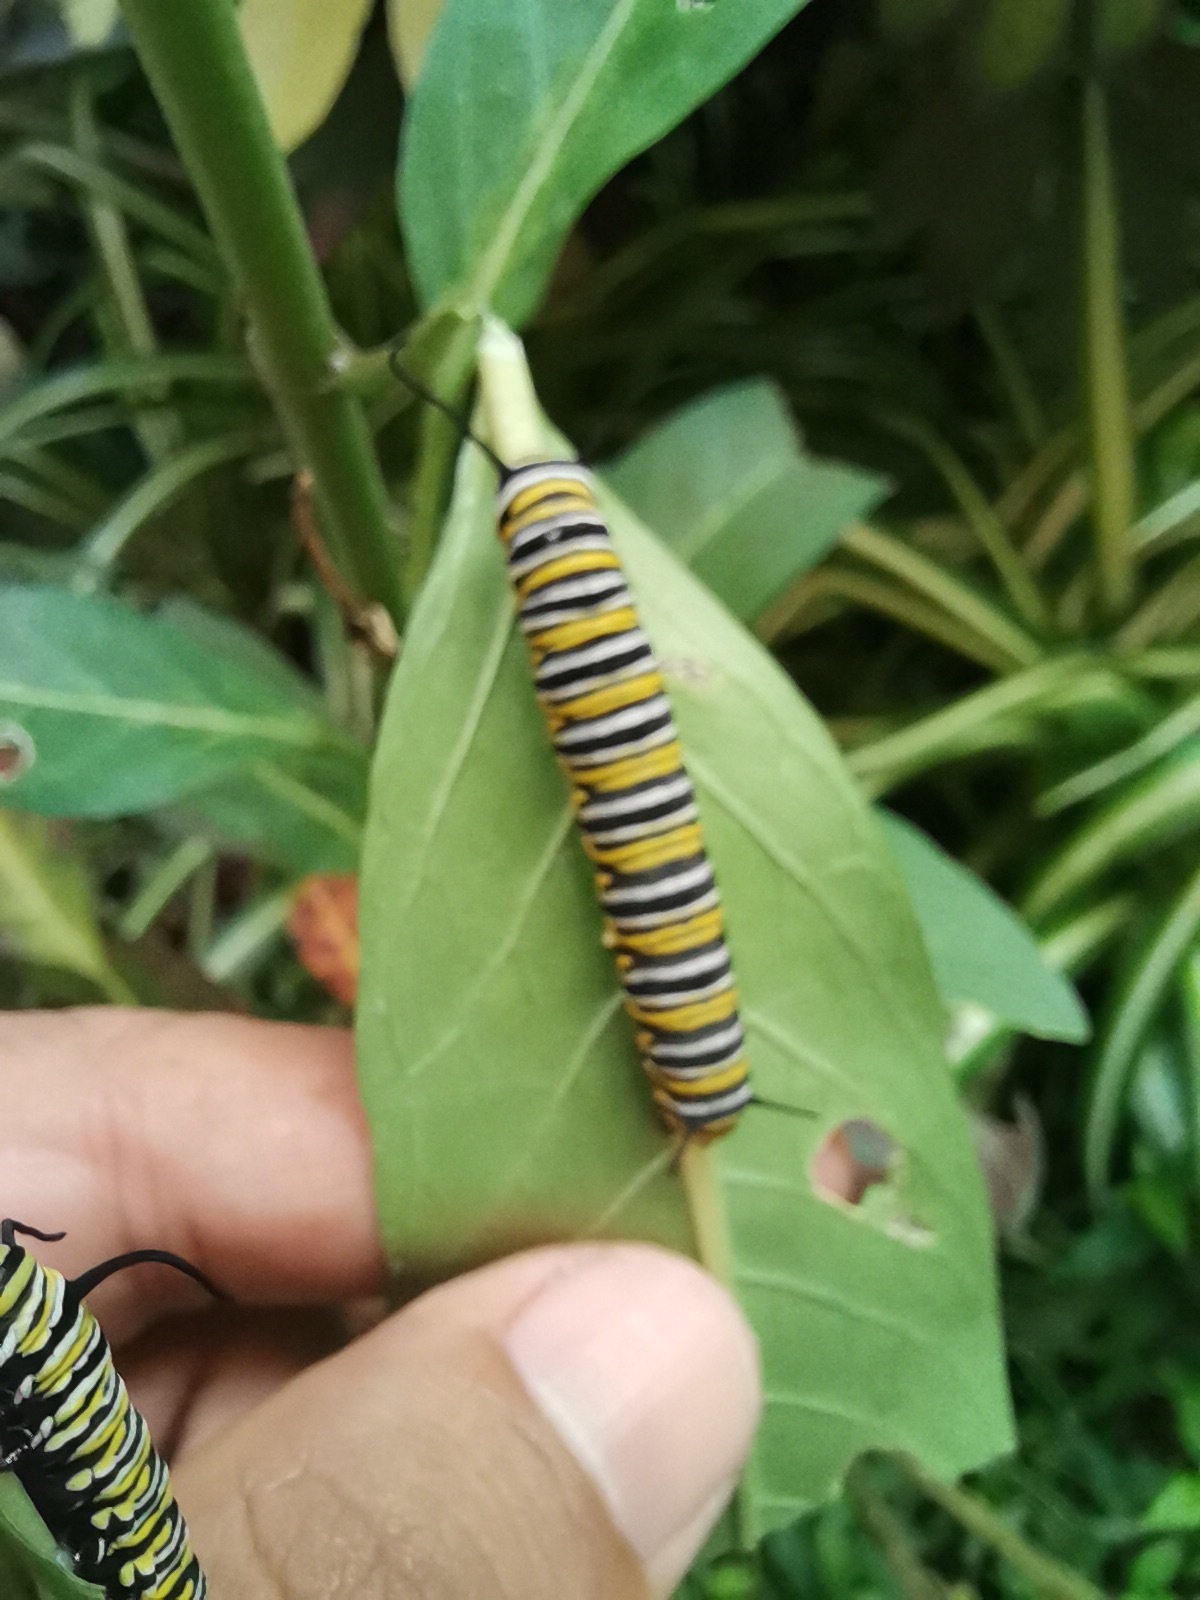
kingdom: Animalia
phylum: Arthropoda
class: Insecta
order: Lepidoptera
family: Nymphalidae
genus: Danaus
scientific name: Danaus plexippus
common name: Monarch
